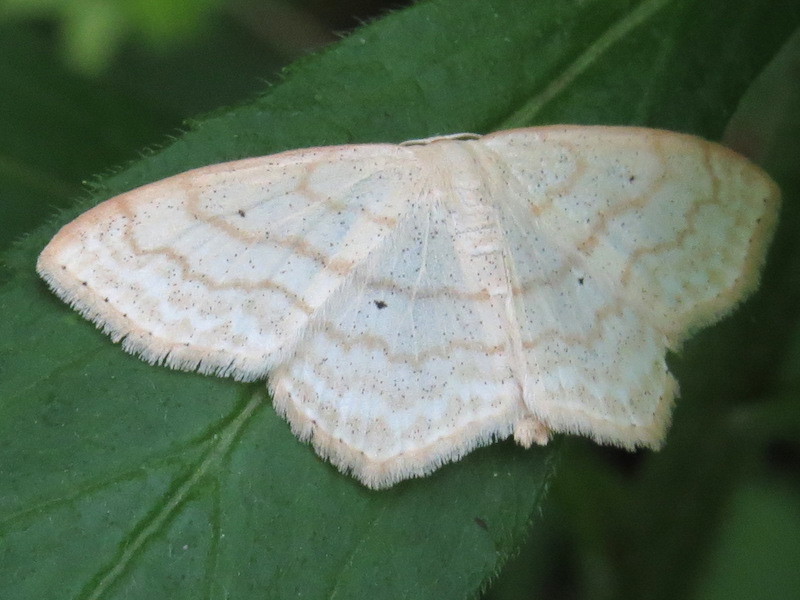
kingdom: Animalia
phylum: Arthropoda
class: Insecta
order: Lepidoptera
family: Geometridae
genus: Scopula
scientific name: Scopula limboundata
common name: Large lace border
